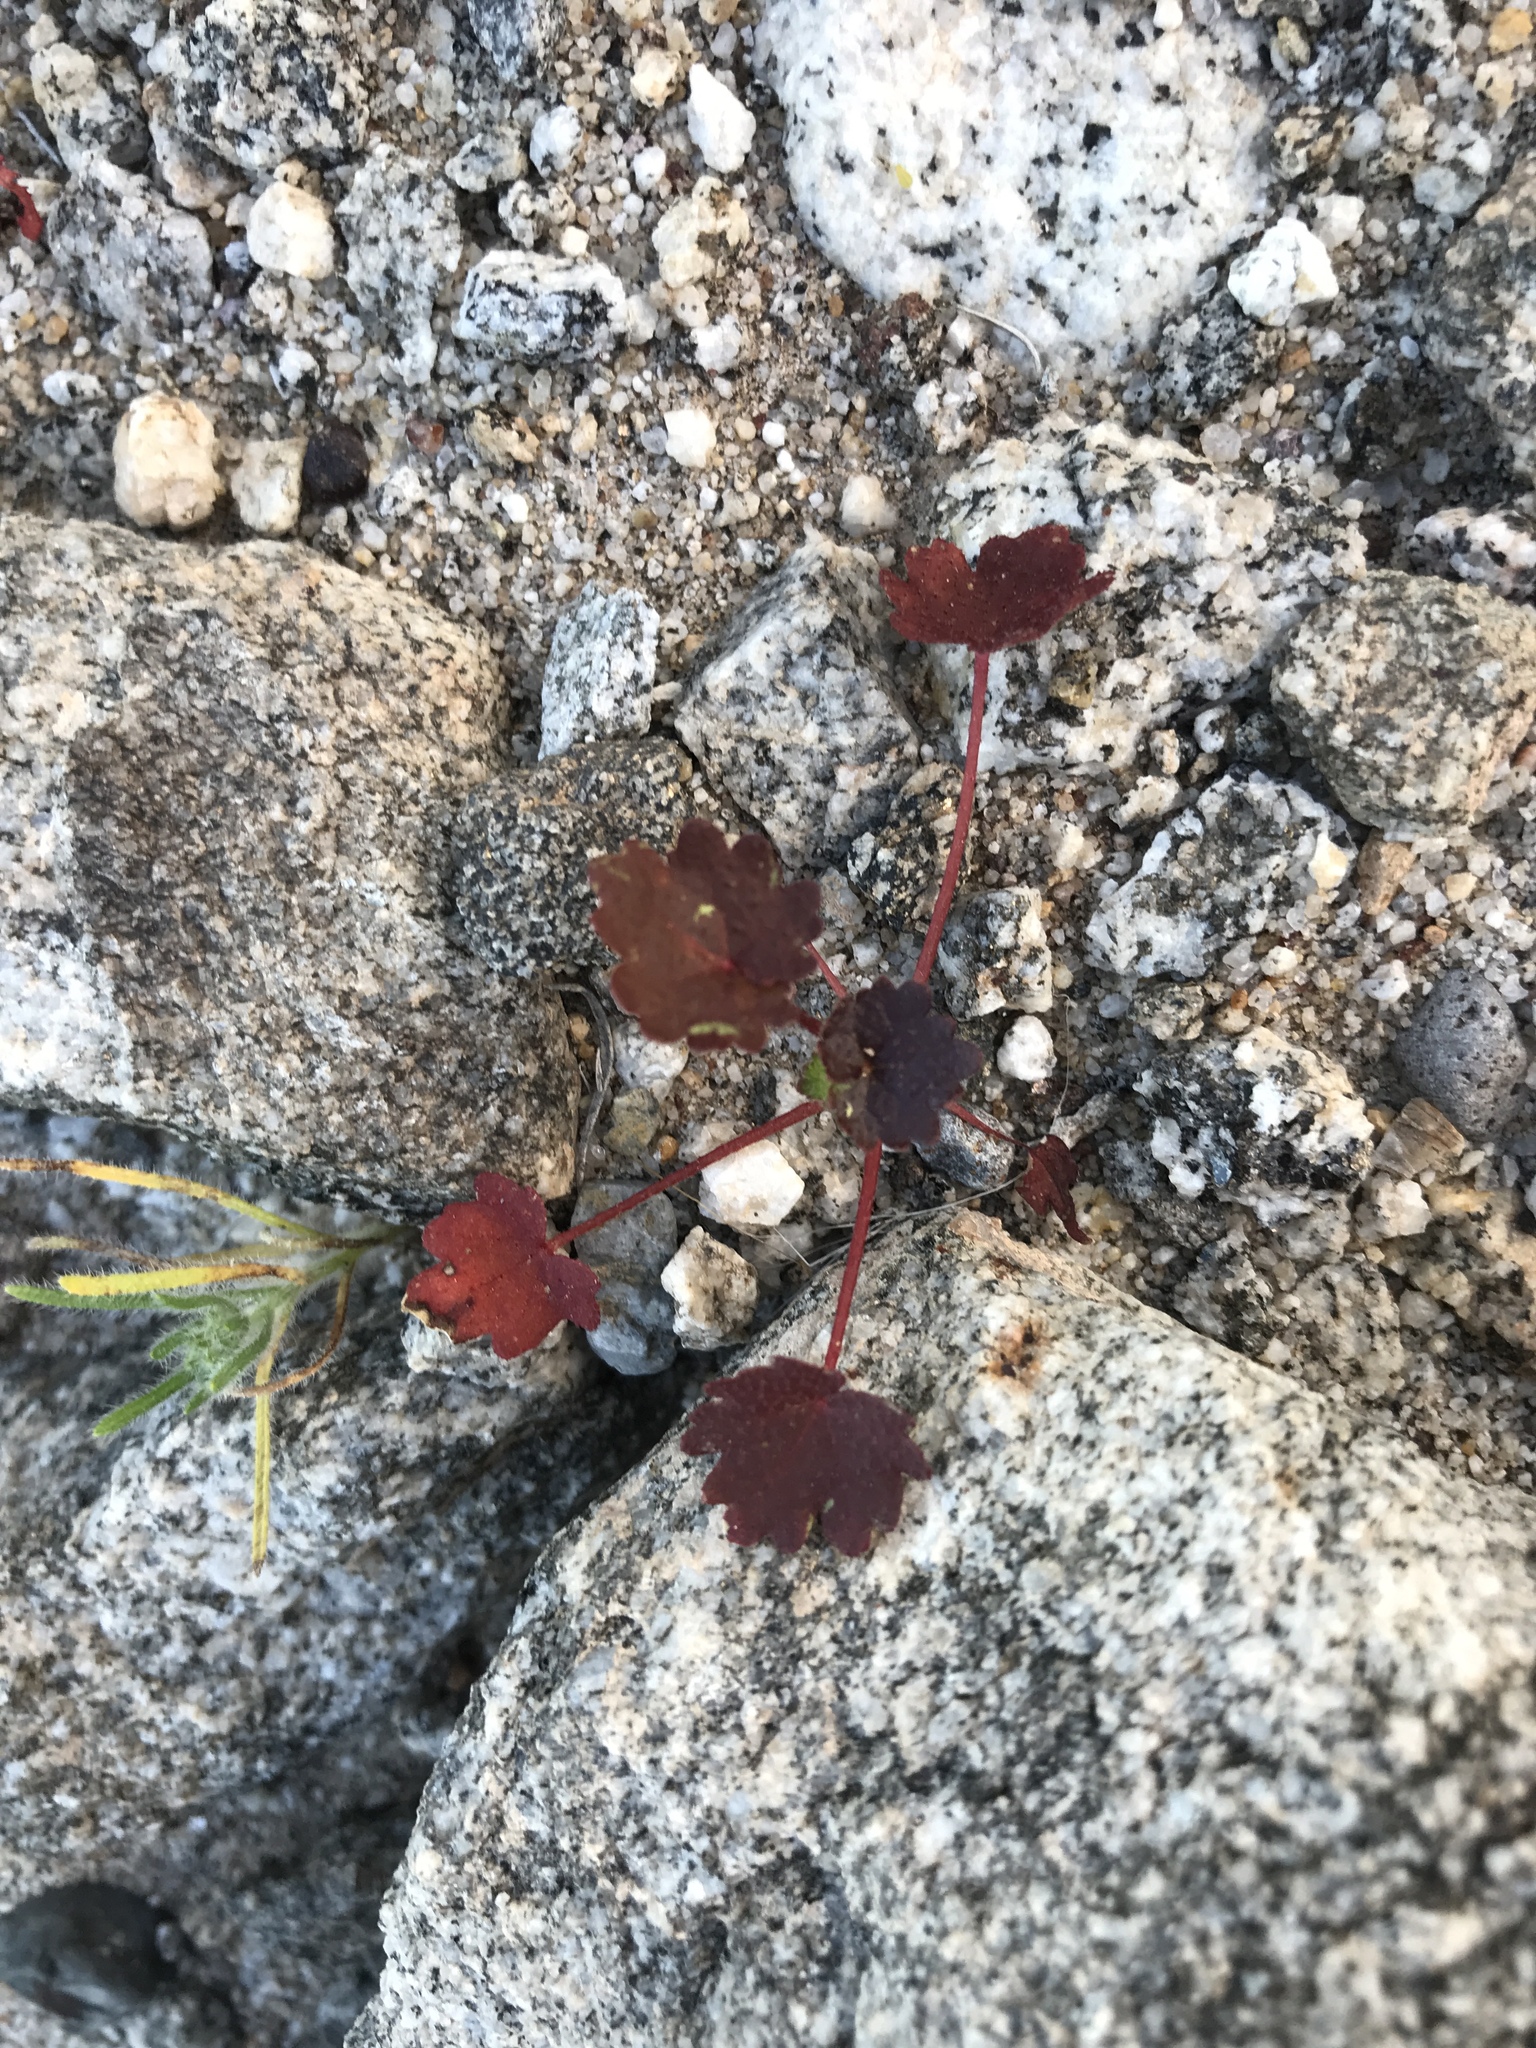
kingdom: Plantae
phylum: Tracheophyta
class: Magnoliopsida
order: Malvales
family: Malvaceae
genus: Eremalche
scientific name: Eremalche rotundifolia
